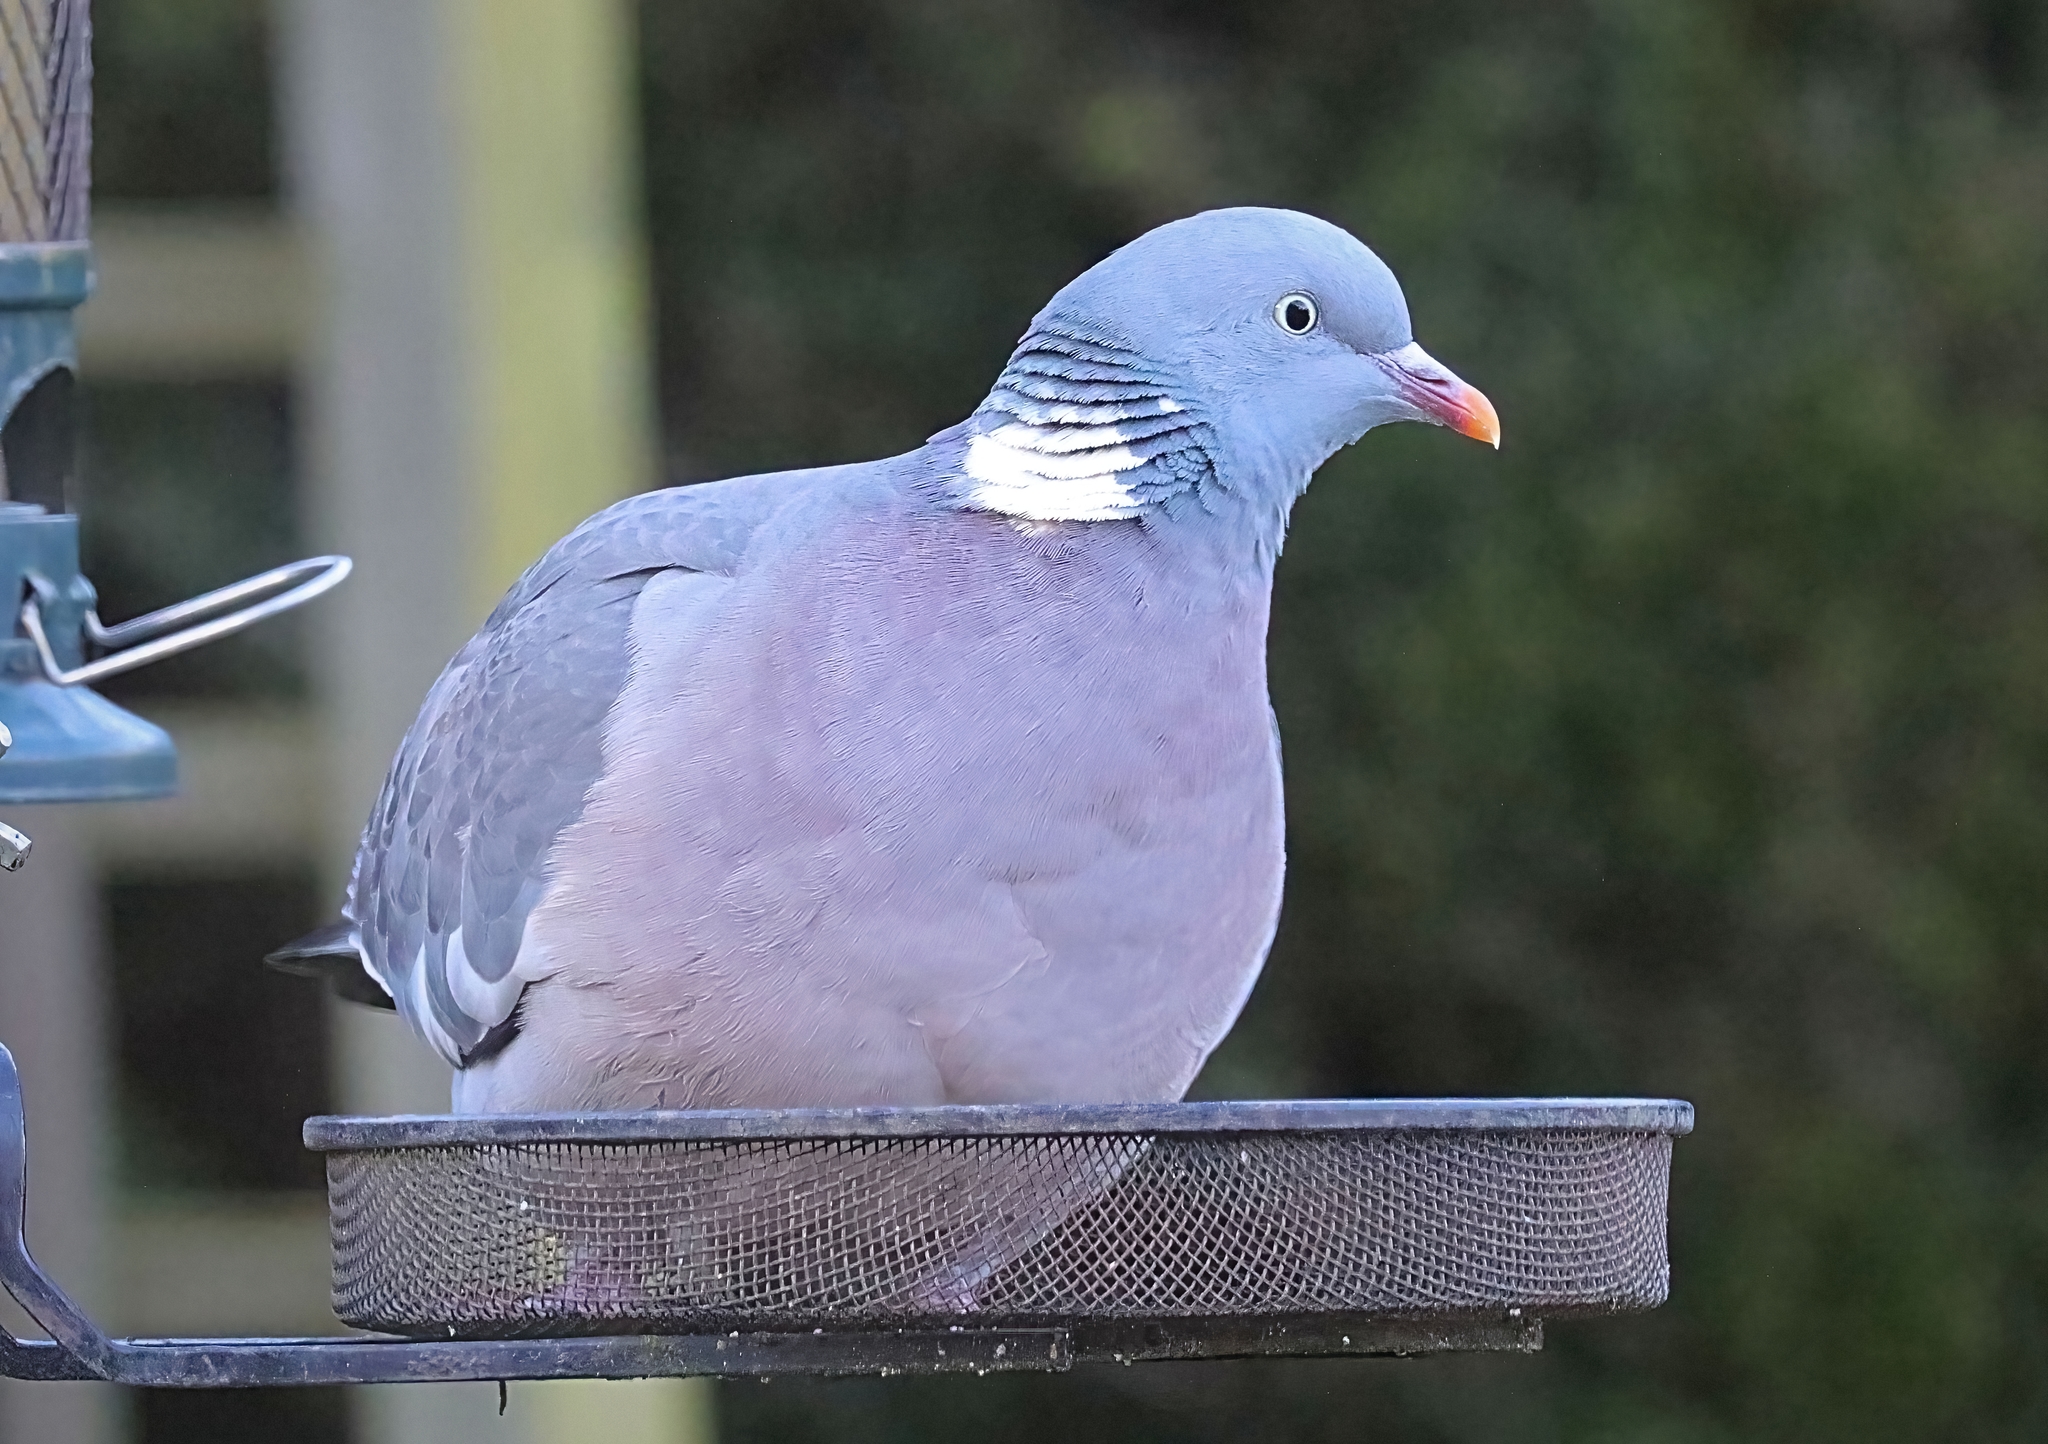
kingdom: Animalia
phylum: Chordata
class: Aves
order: Columbiformes
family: Columbidae
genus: Columba
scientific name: Columba palumbus
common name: Common wood pigeon
